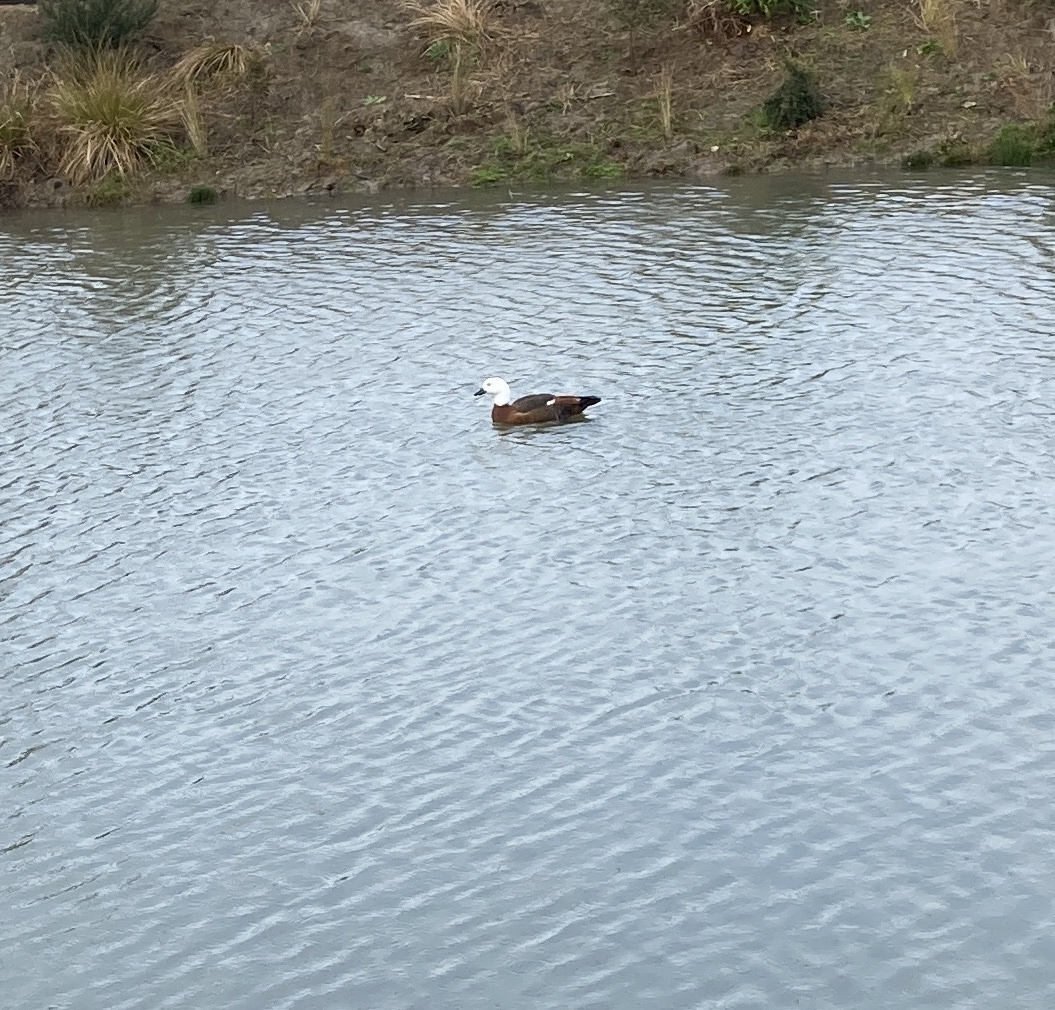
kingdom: Animalia
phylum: Chordata
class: Aves
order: Anseriformes
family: Anatidae
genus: Tadorna
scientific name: Tadorna variegata
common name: Paradise shelduck
